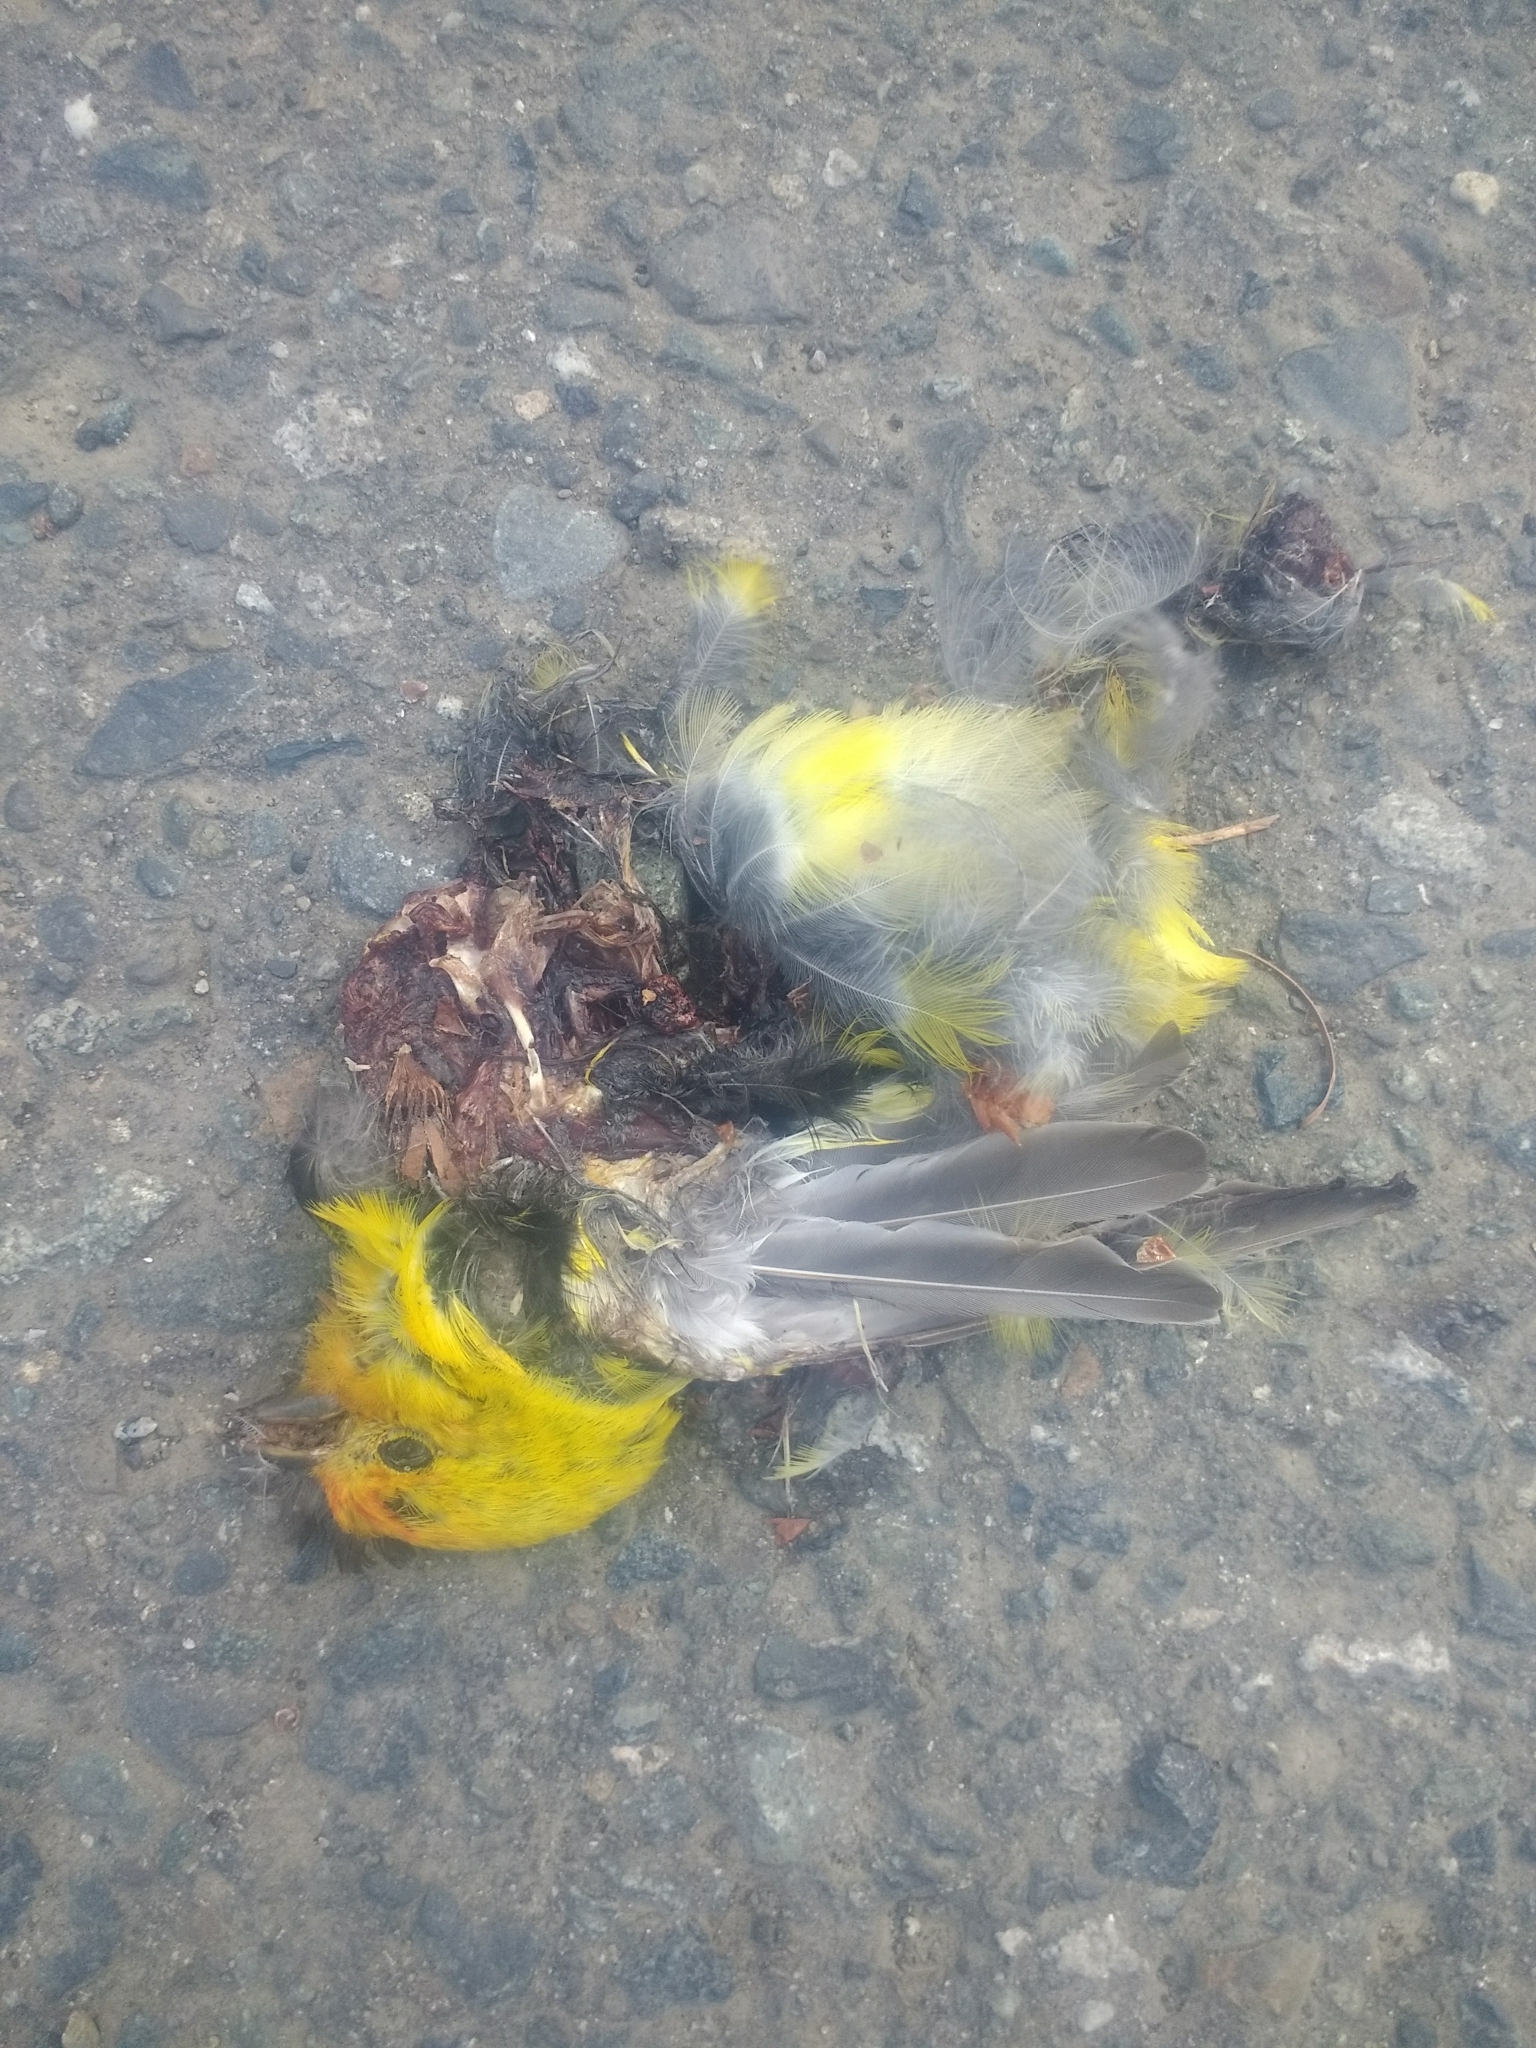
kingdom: Animalia
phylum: Chordata
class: Aves
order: Passeriformes
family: Cardinalidae
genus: Piranga
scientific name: Piranga ludoviciana
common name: Western tanager
